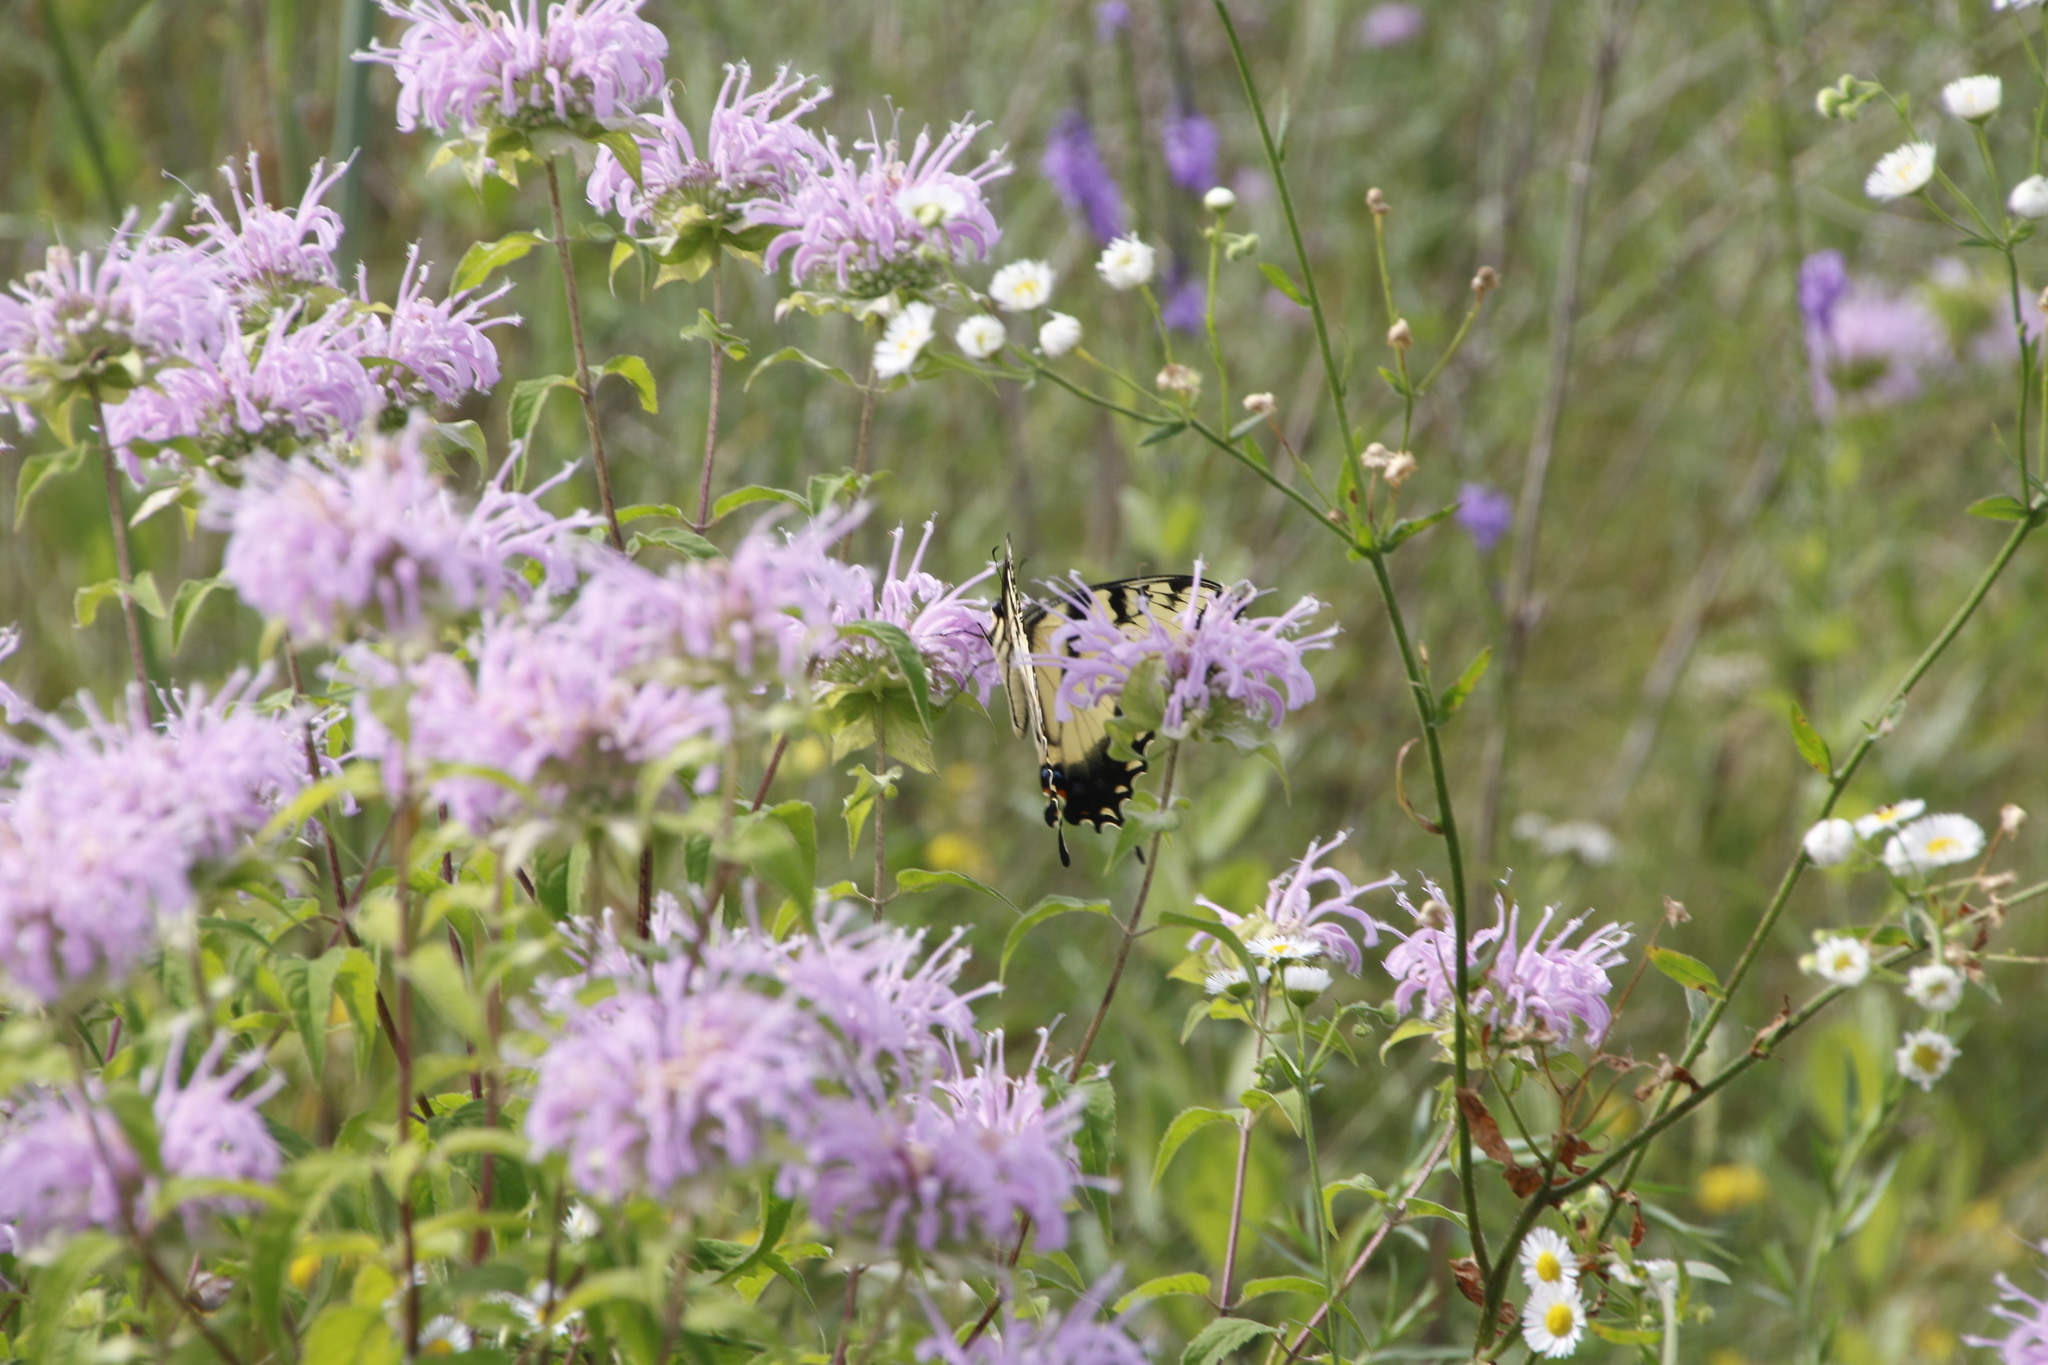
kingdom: Animalia
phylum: Arthropoda
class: Insecta
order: Lepidoptera
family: Papilionidae
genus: Papilio
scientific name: Papilio glaucus
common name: Tiger swallowtail
